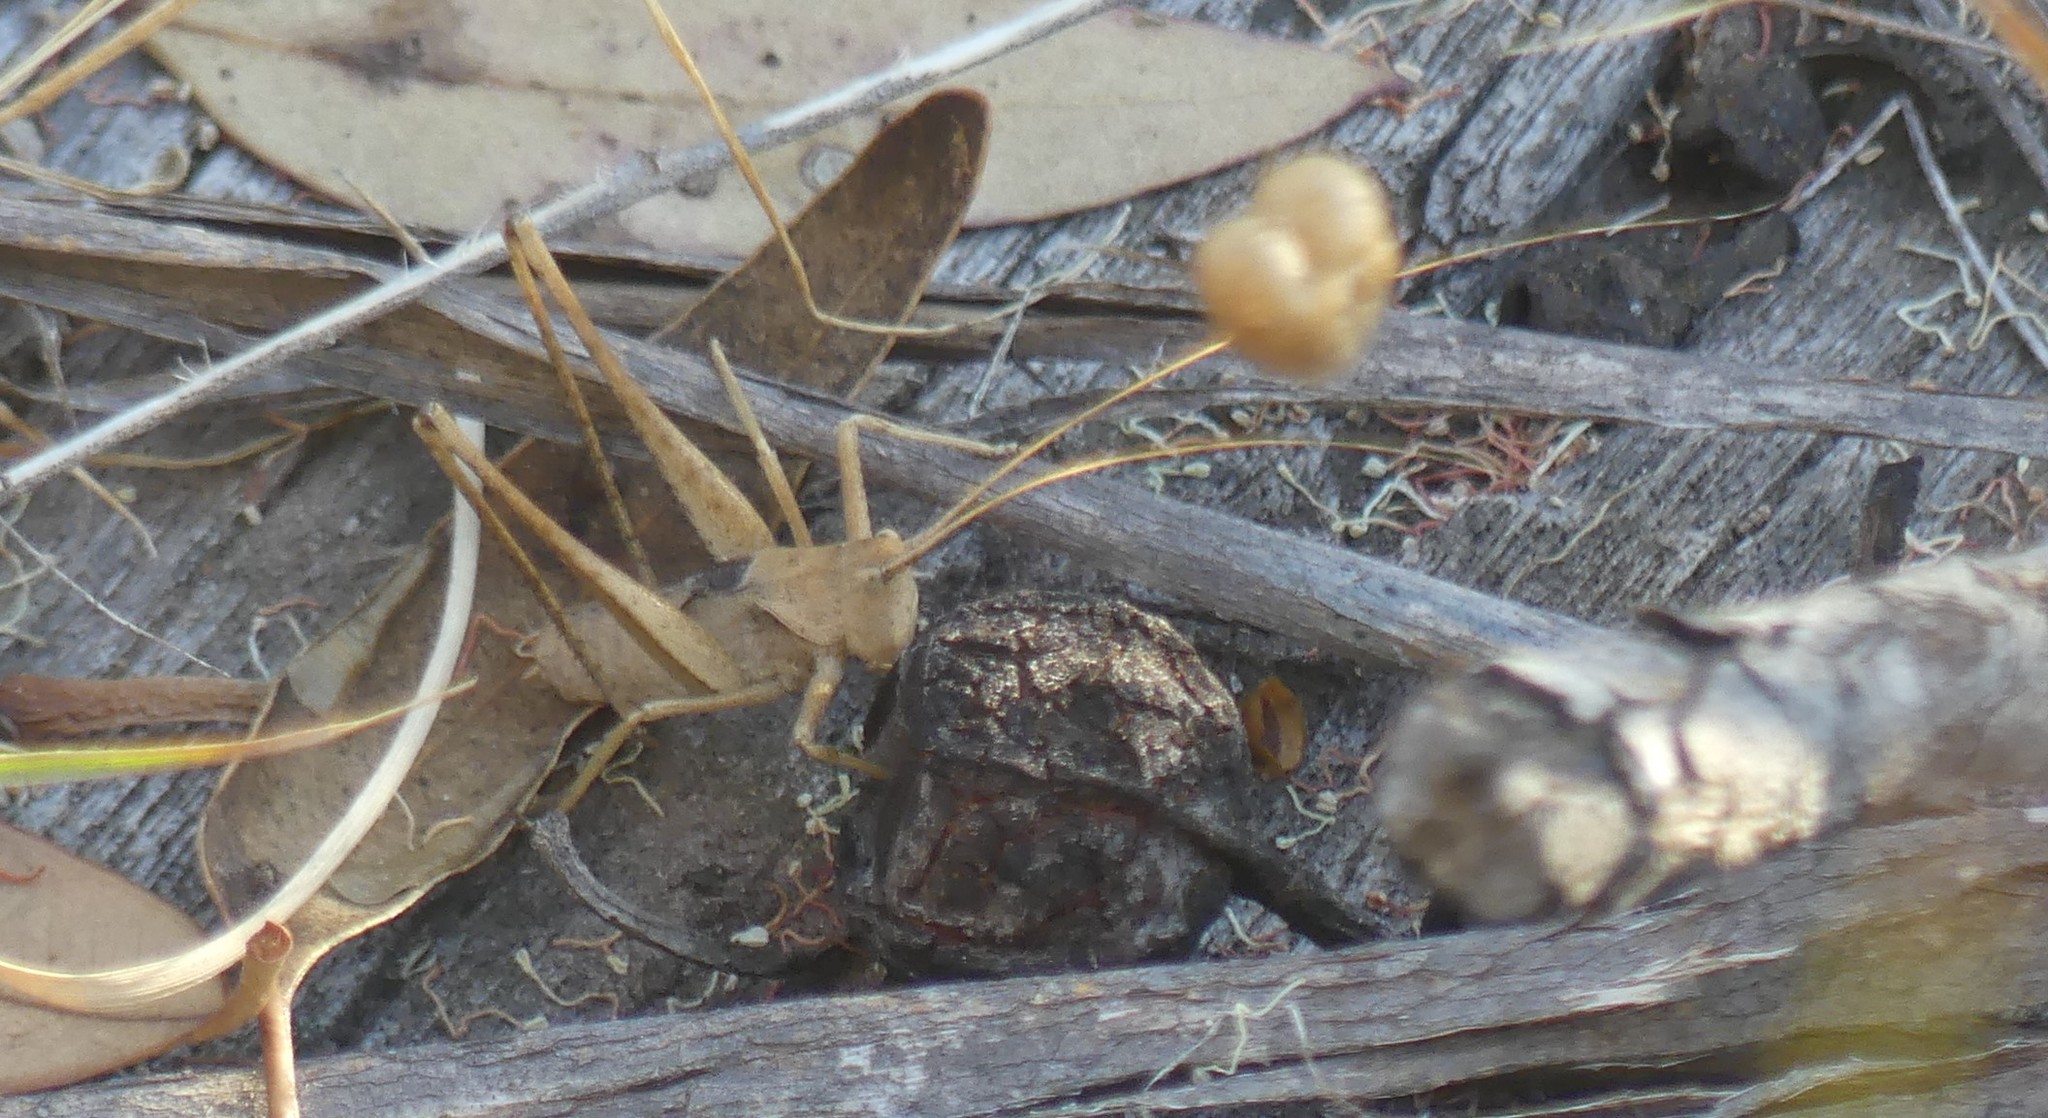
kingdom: Animalia
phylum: Arthropoda
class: Insecta
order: Orthoptera
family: Tettigoniidae
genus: Xederra
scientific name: Xederra barbarae
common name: Barbara's xederra
